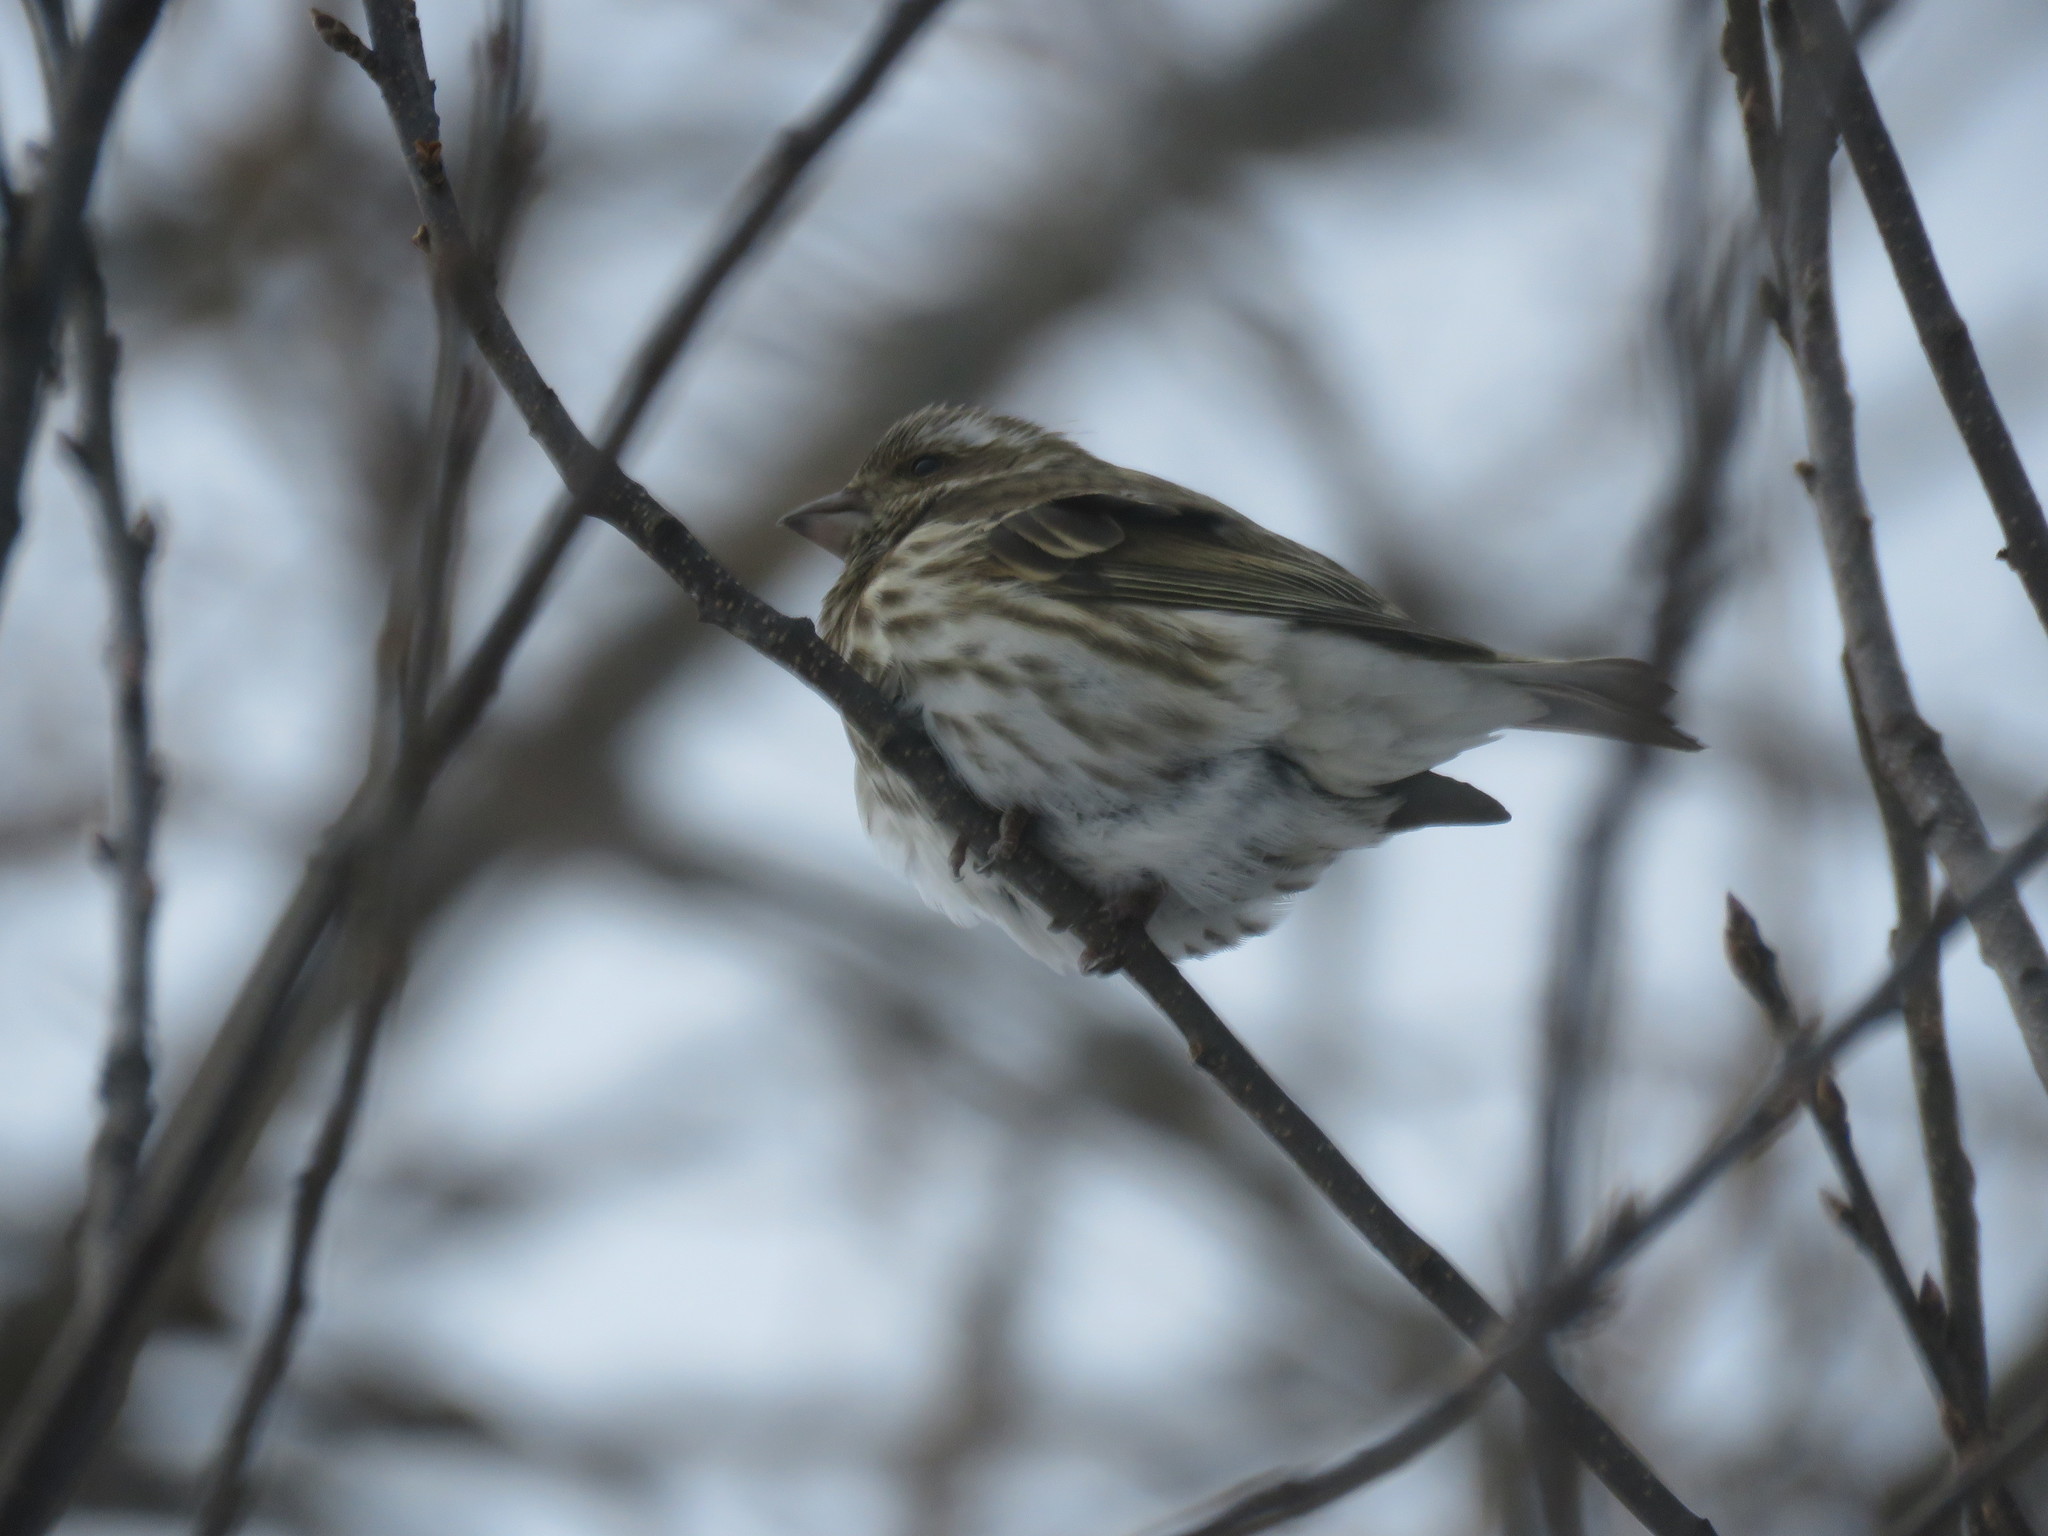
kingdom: Animalia
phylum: Chordata
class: Aves
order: Passeriformes
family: Fringillidae
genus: Haemorhous
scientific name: Haemorhous purpureus
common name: Purple finch
